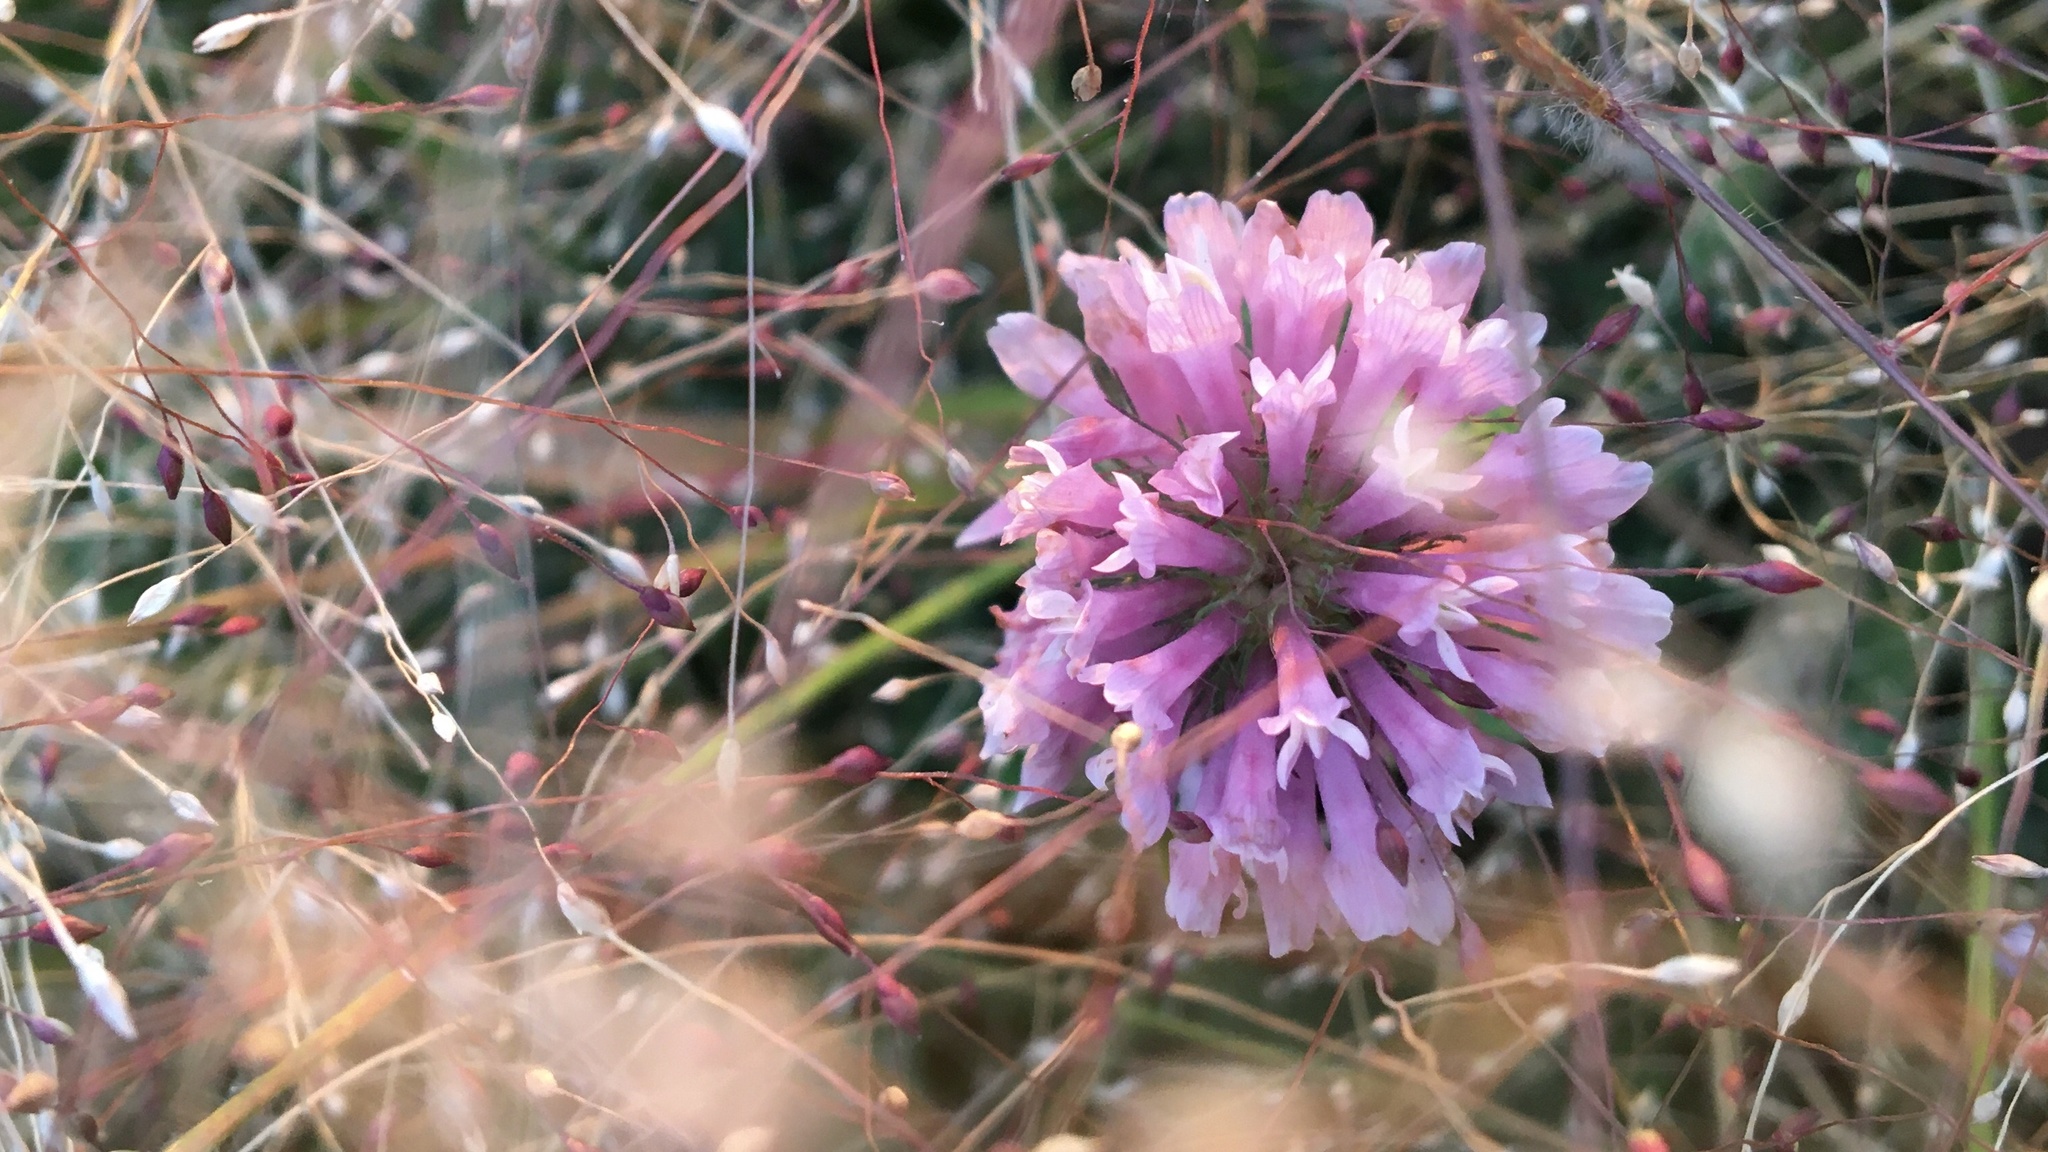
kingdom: Plantae
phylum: Tracheophyta
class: Magnoliopsida
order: Fabales
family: Fabaceae
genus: Trifolium
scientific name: Trifolium pratense
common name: Red clover
